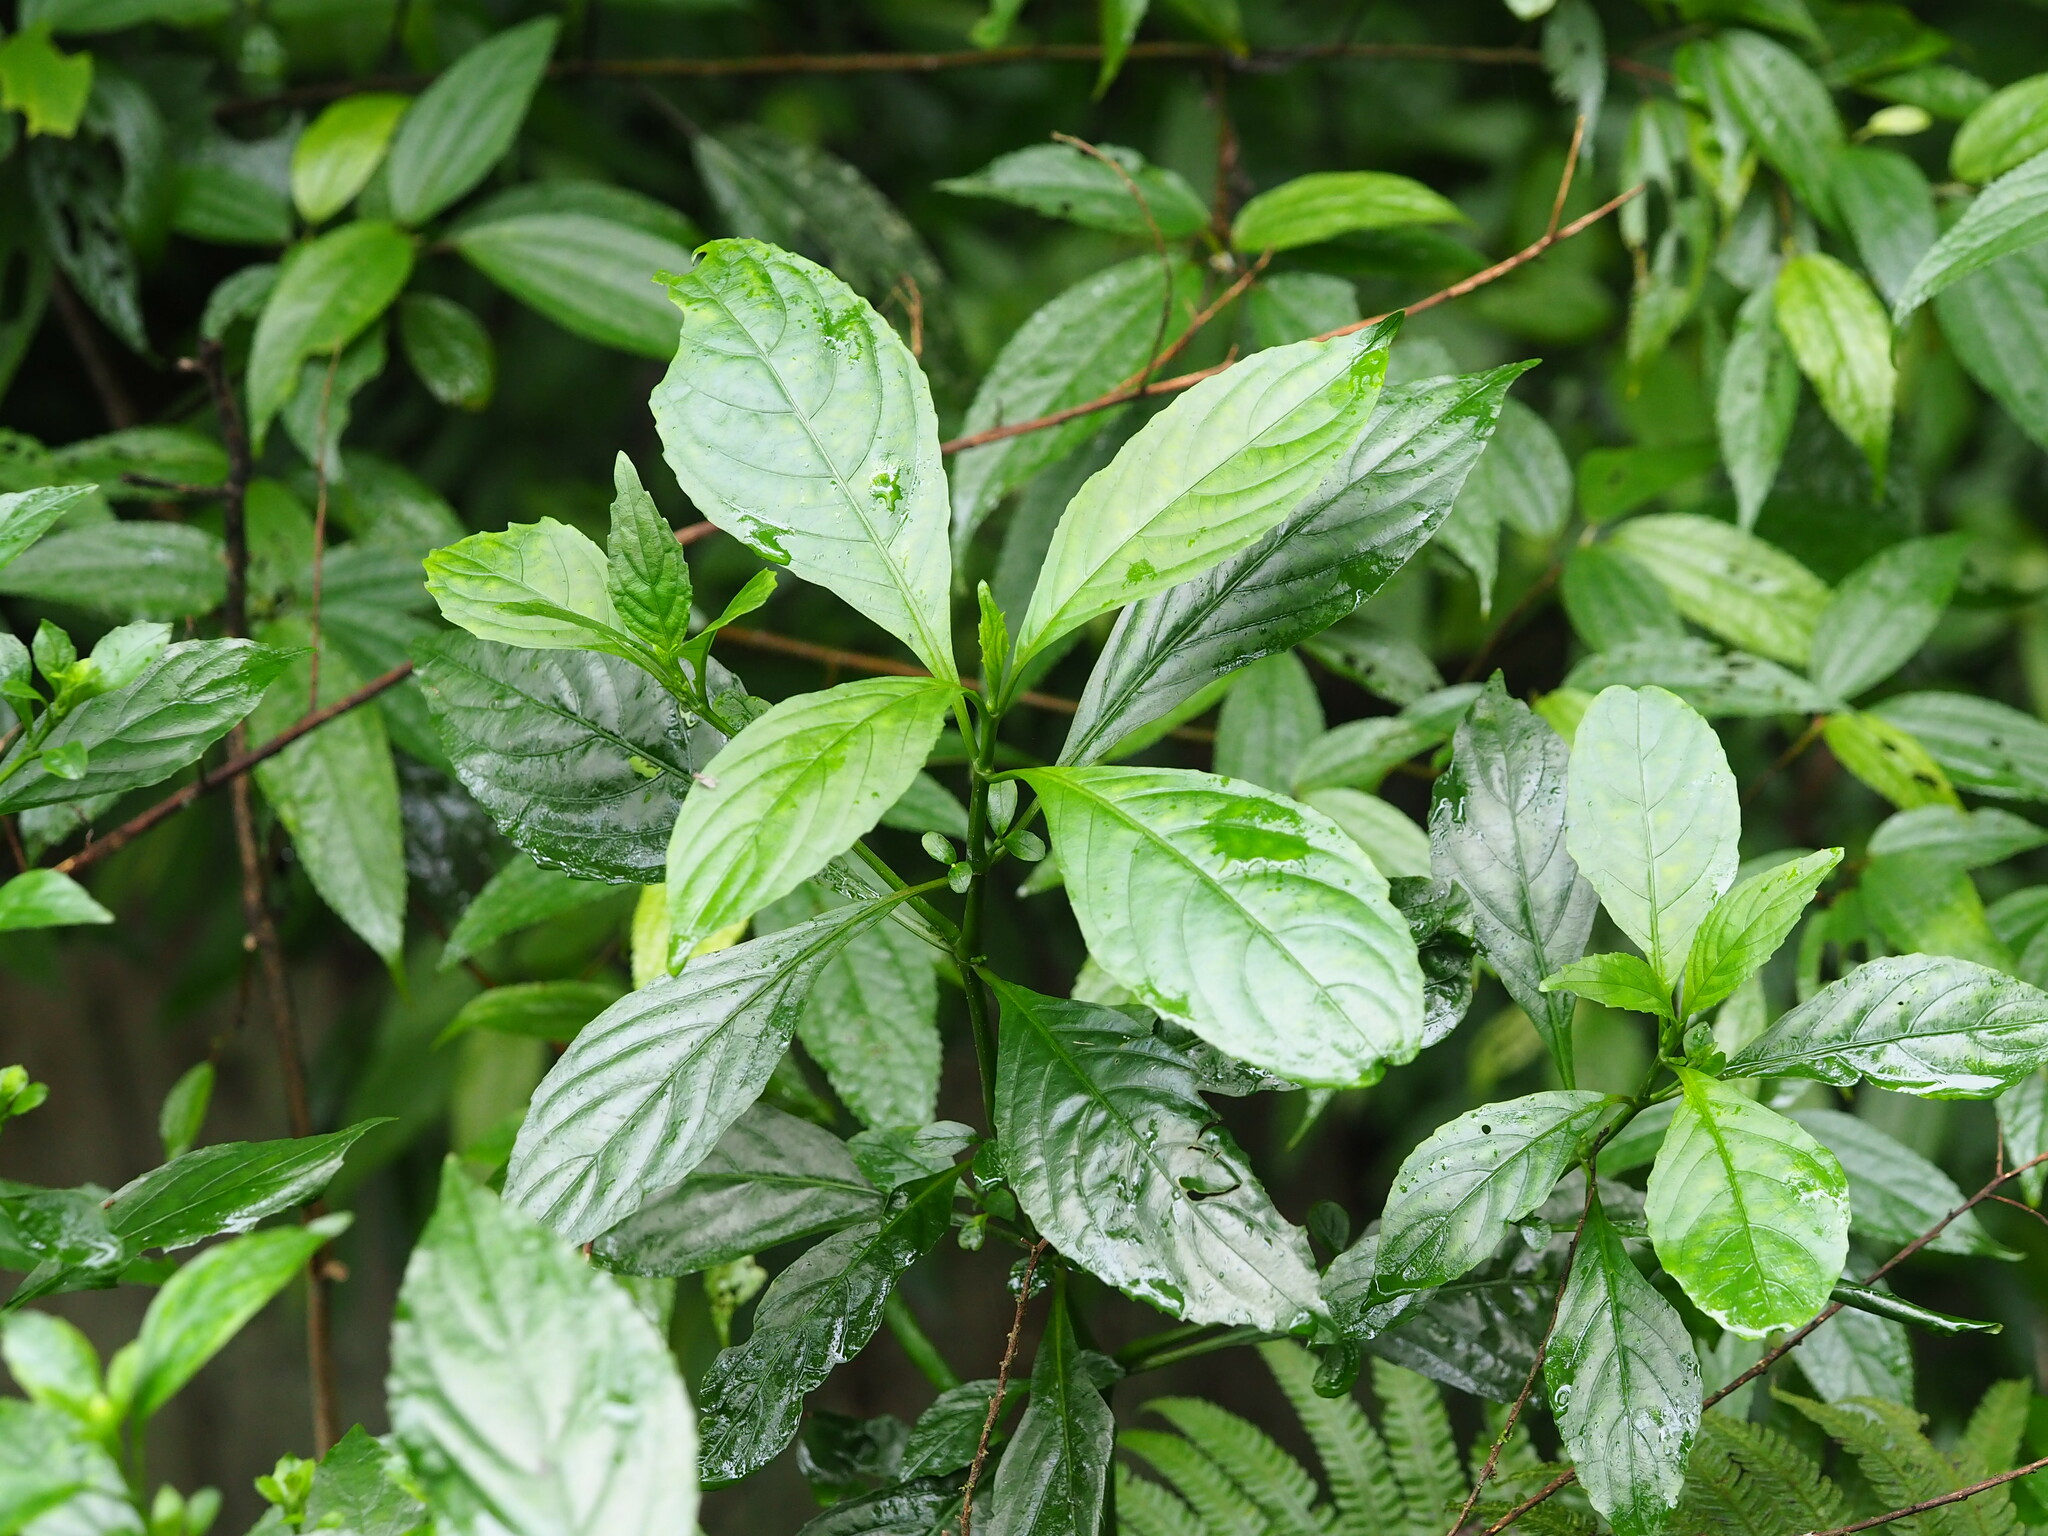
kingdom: Plantae
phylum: Tracheophyta
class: Magnoliopsida
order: Lamiales
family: Acanthaceae
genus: Strobilanthes
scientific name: Strobilanthes cusia
